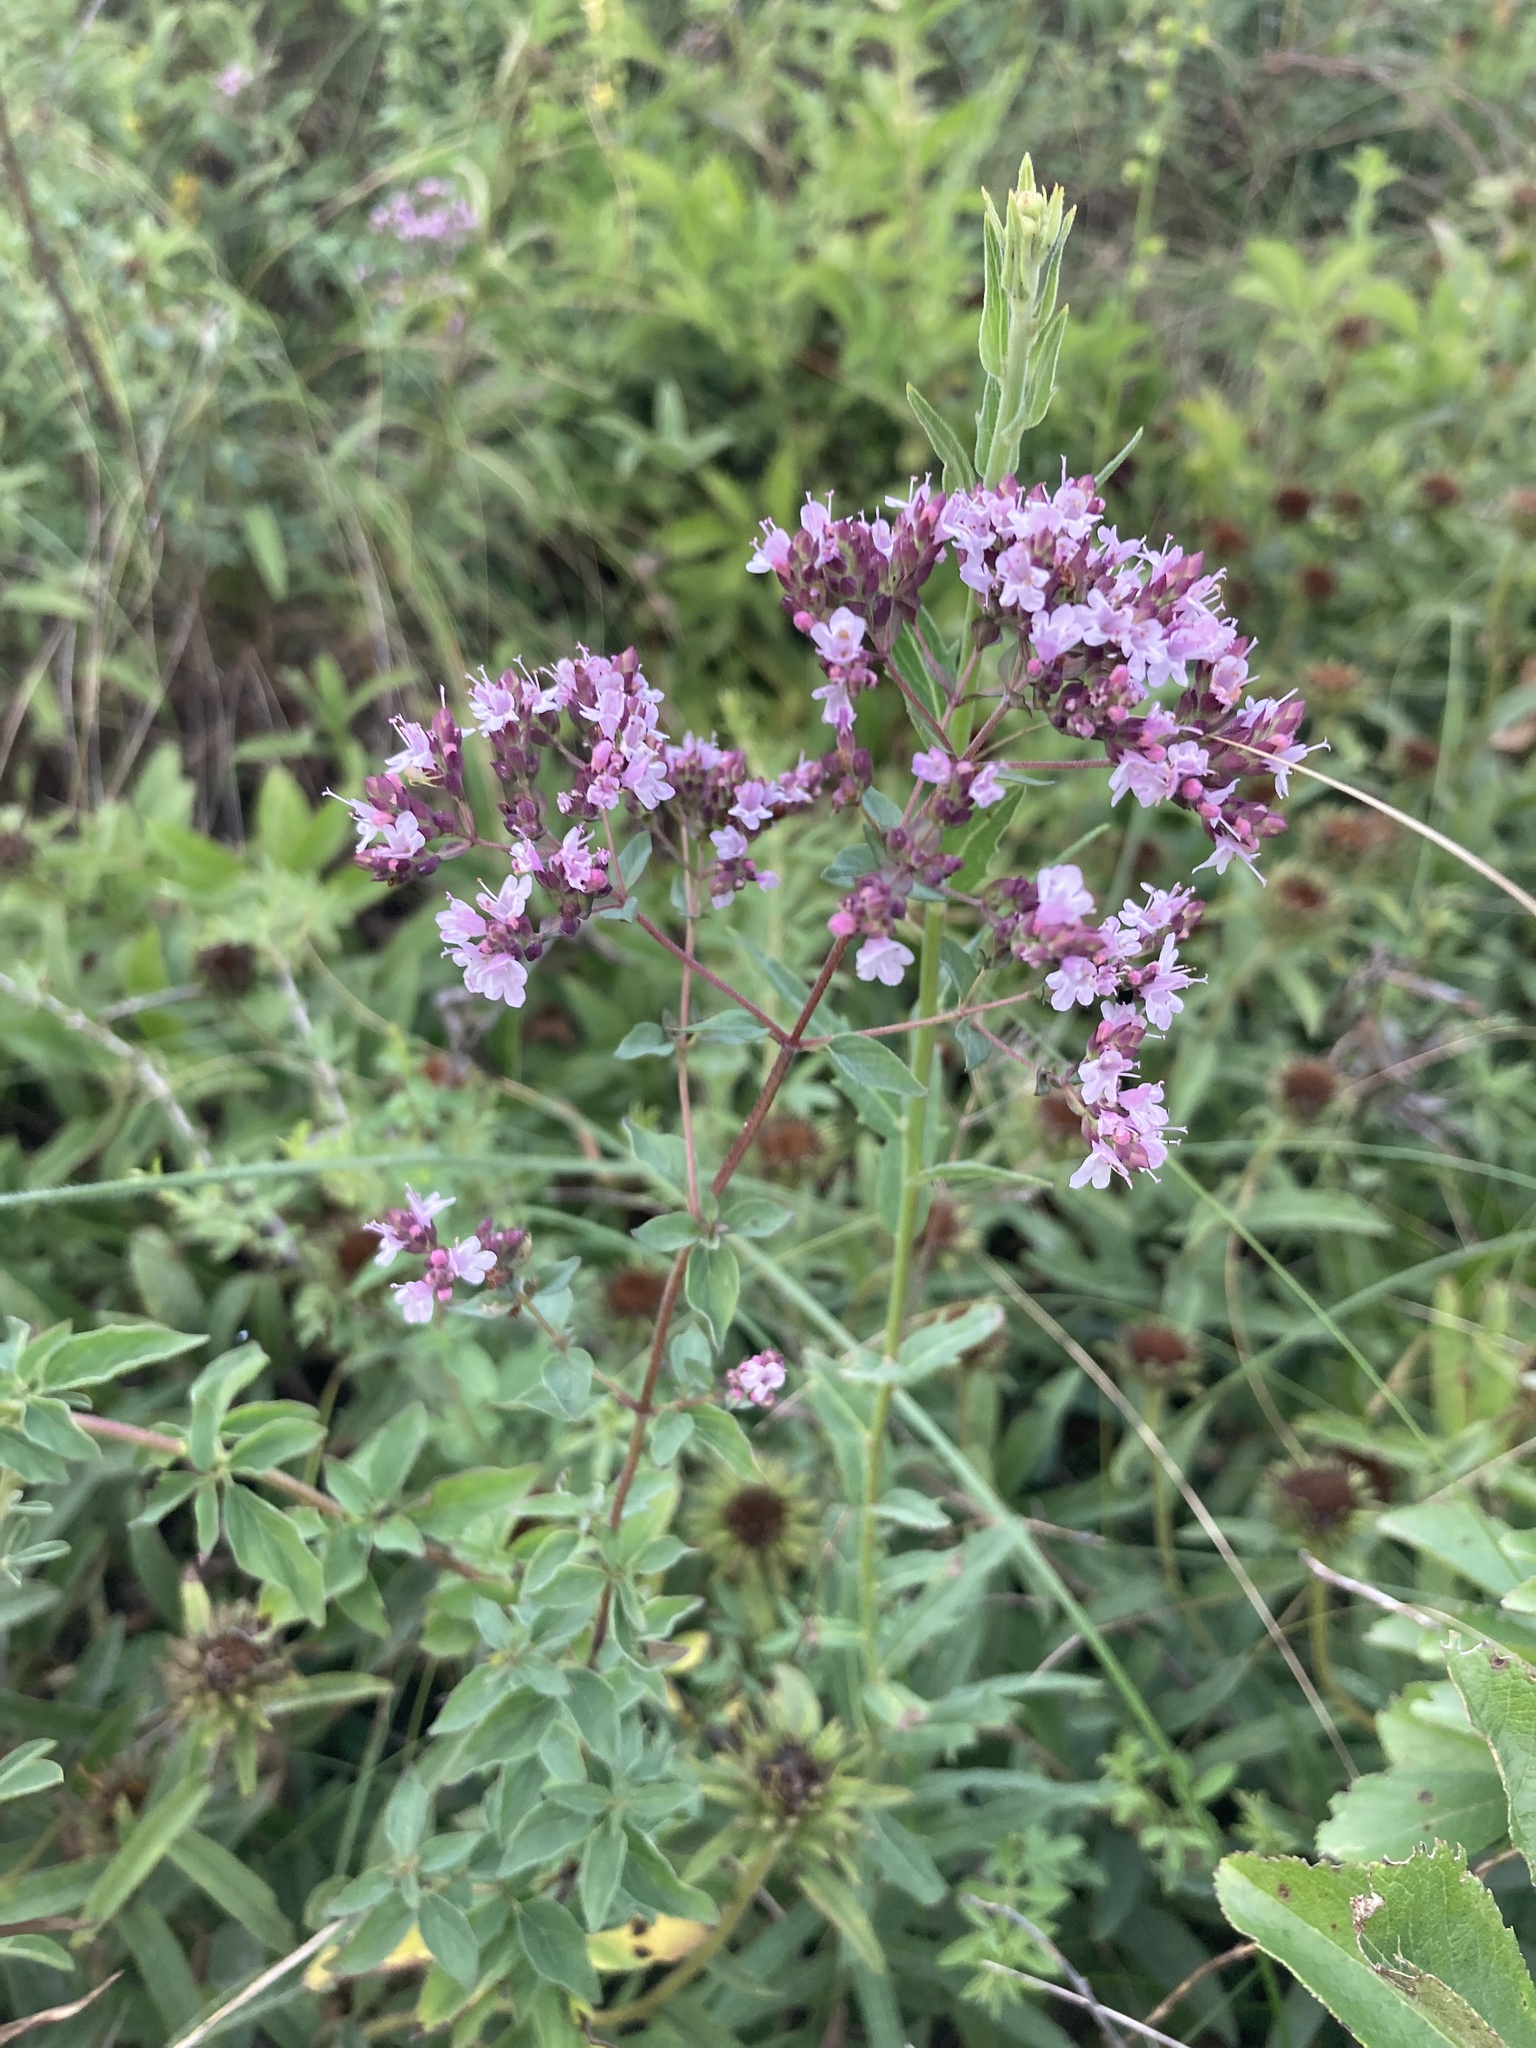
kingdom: Plantae
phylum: Tracheophyta
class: Magnoliopsida
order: Lamiales
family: Lamiaceae
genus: Origanum
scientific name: Origanum vulgare
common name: Wild marjoram
